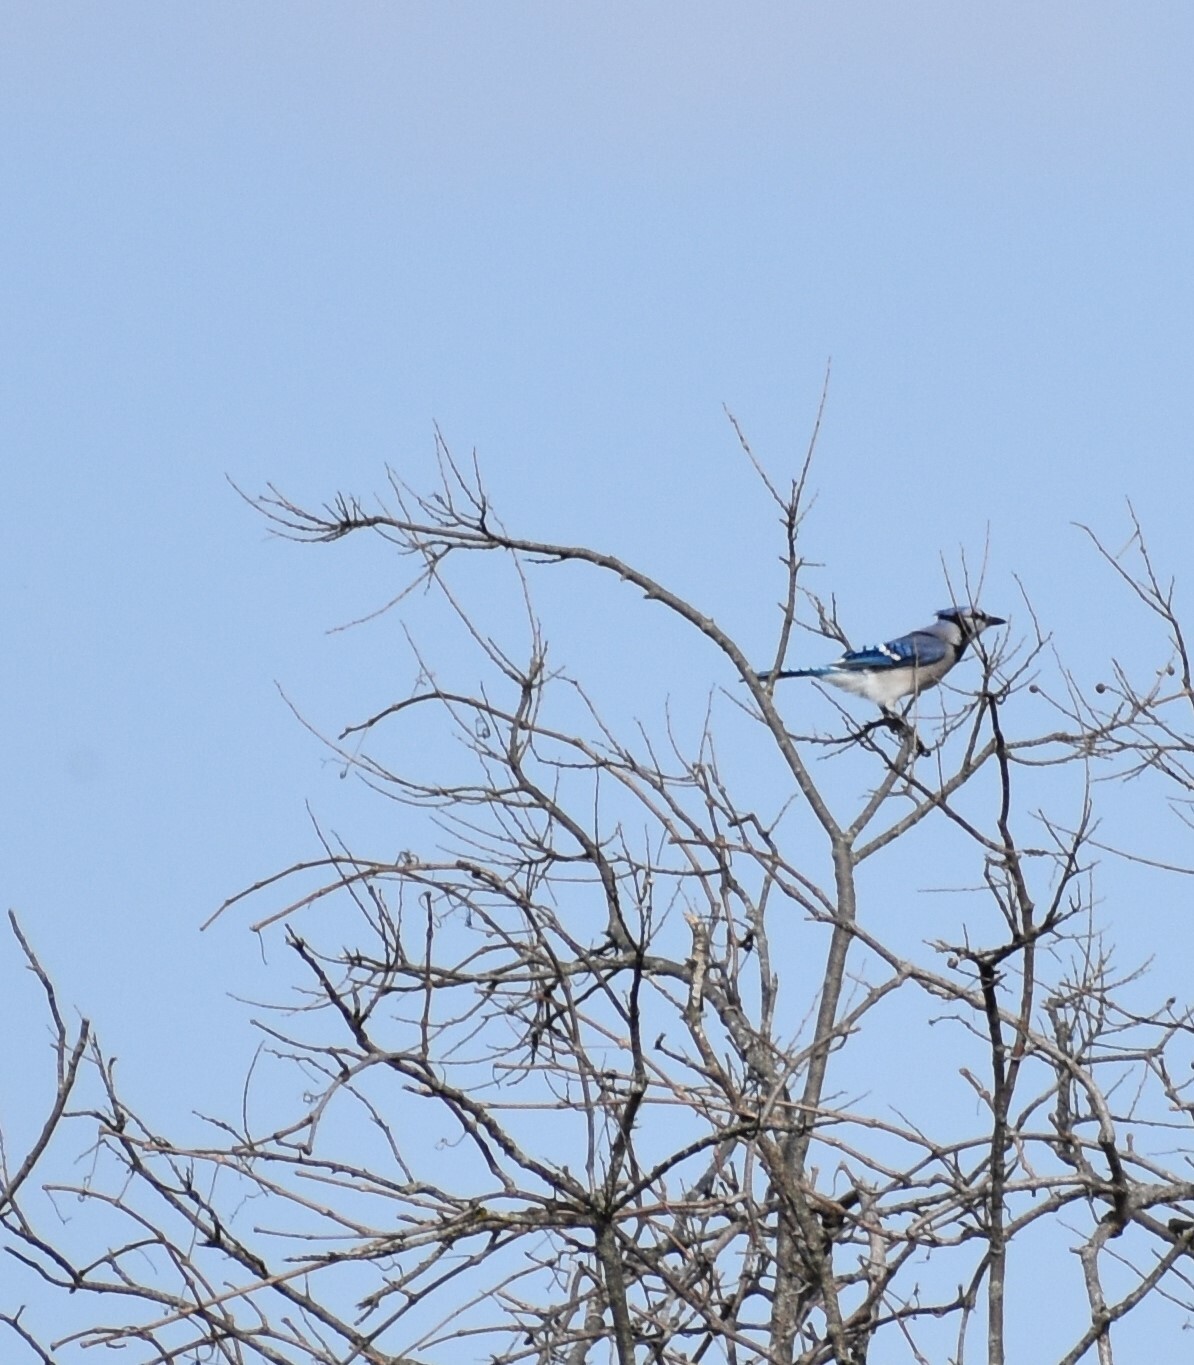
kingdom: Animalia
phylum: Chordata
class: Aves
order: Passeriformes
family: Corvidae
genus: Cyanocitta
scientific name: Cyanocitta cristata
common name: Blue jay
